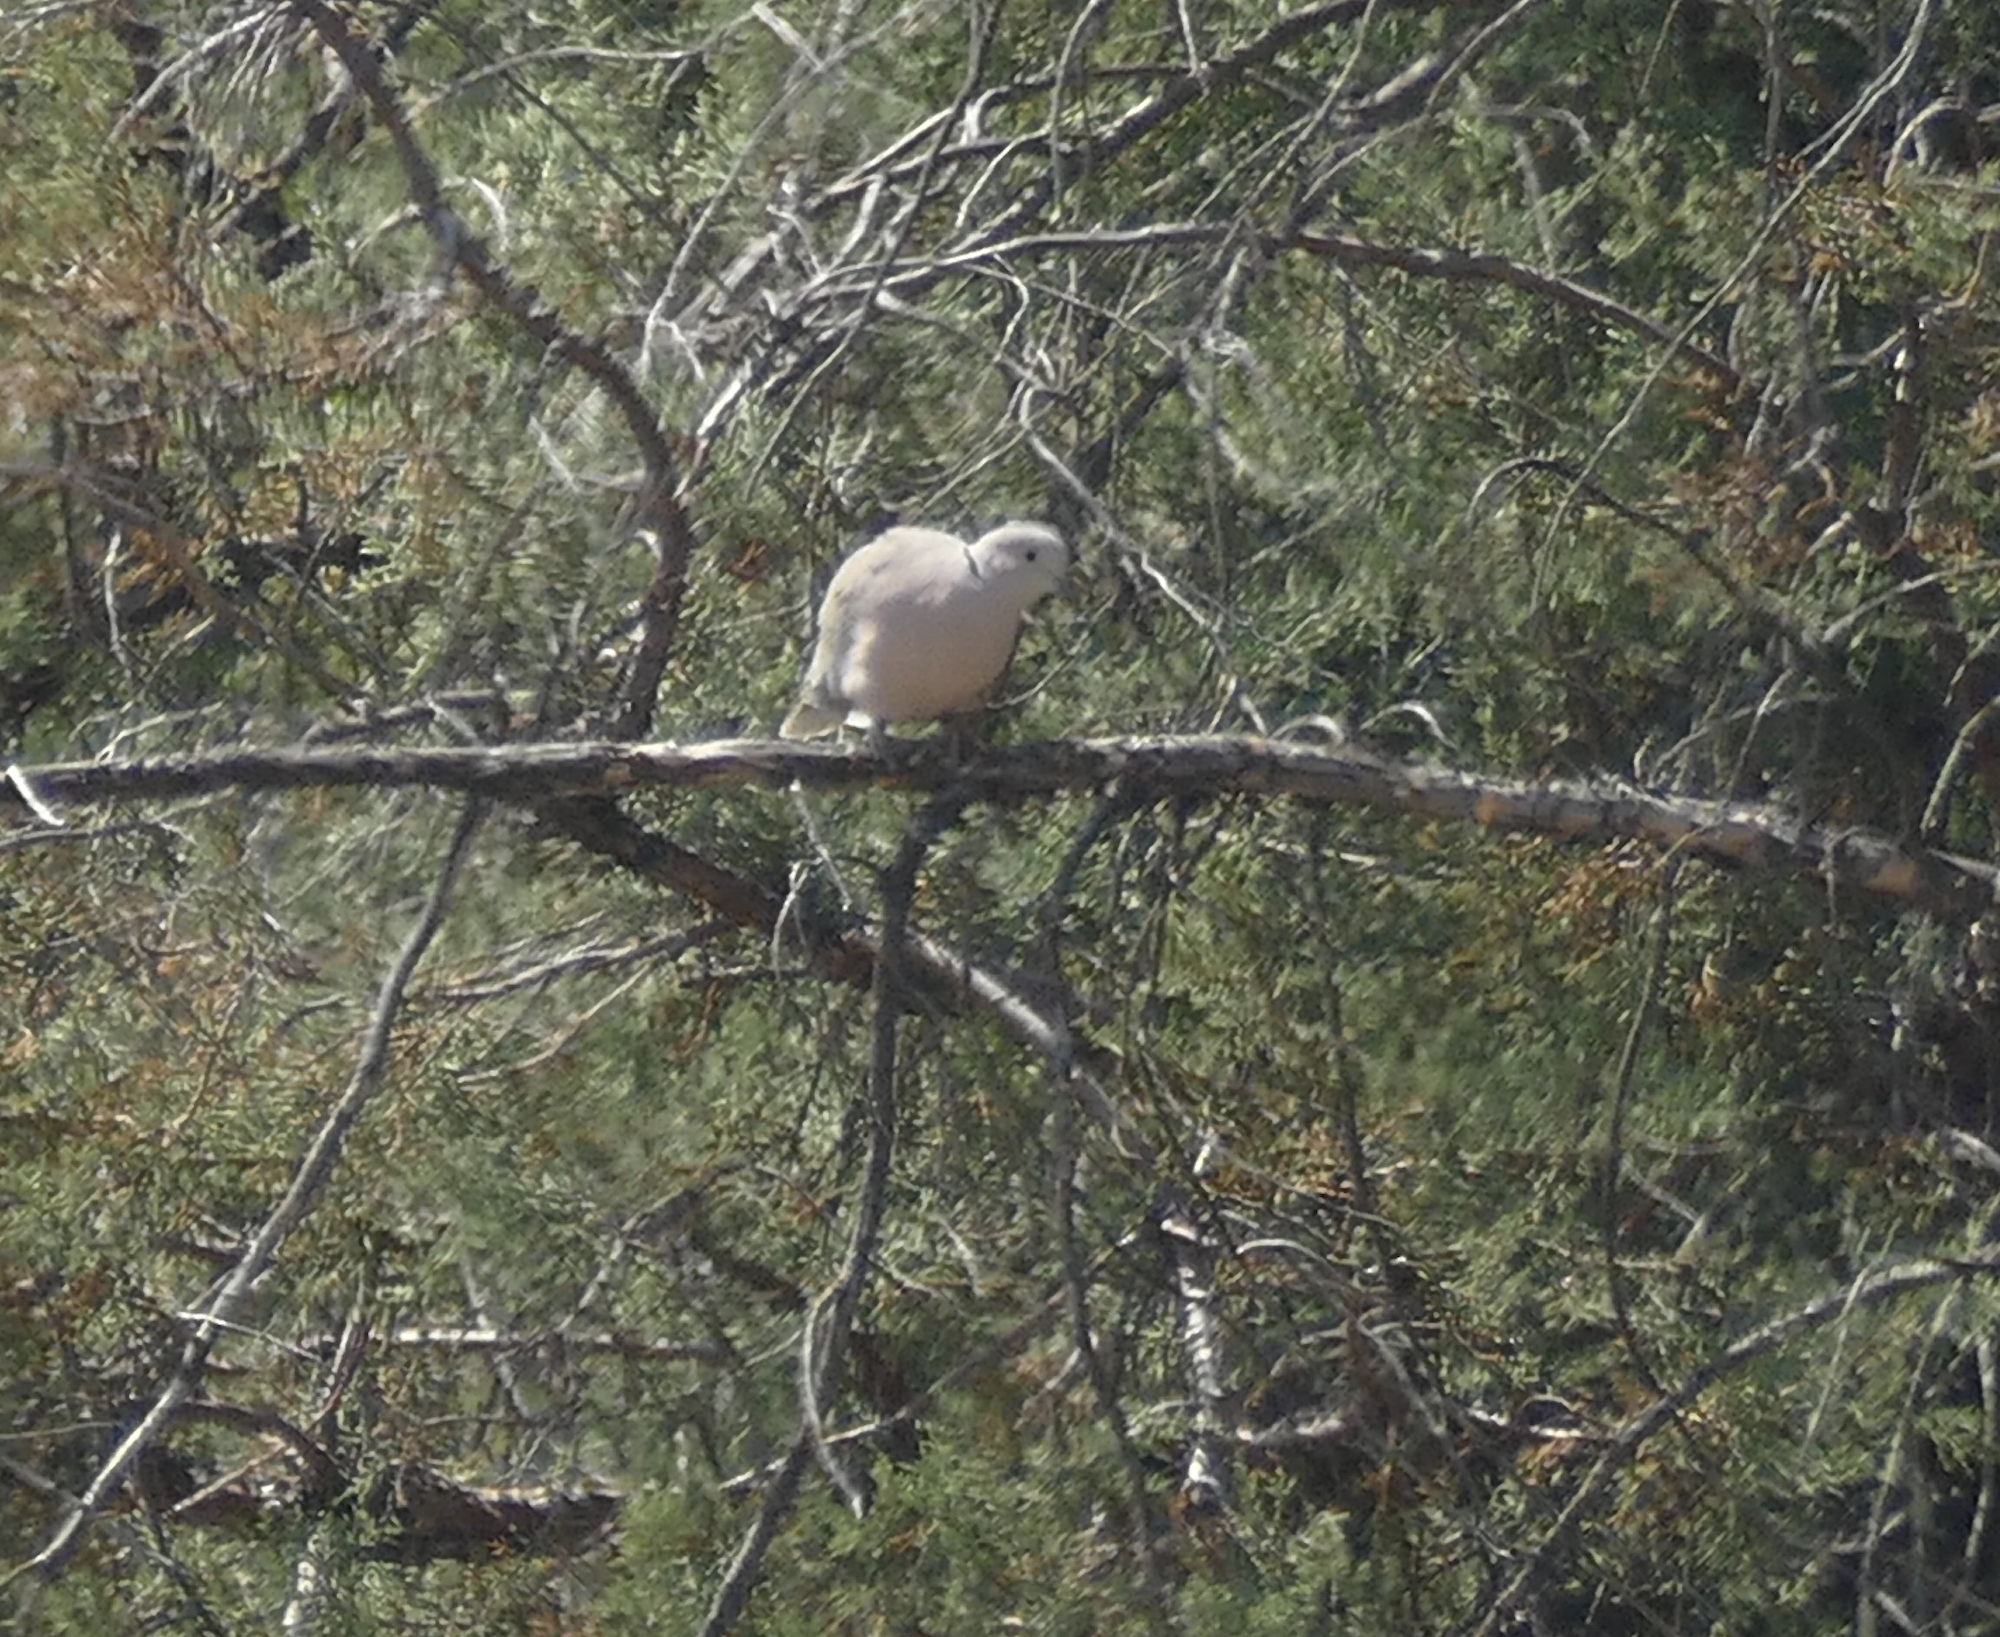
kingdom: Animalia
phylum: Chordata
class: Aves
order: Columbiformes
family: Columbidae
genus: Streptopelia
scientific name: Streptopelia decaocto
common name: Eurasian collared dove
